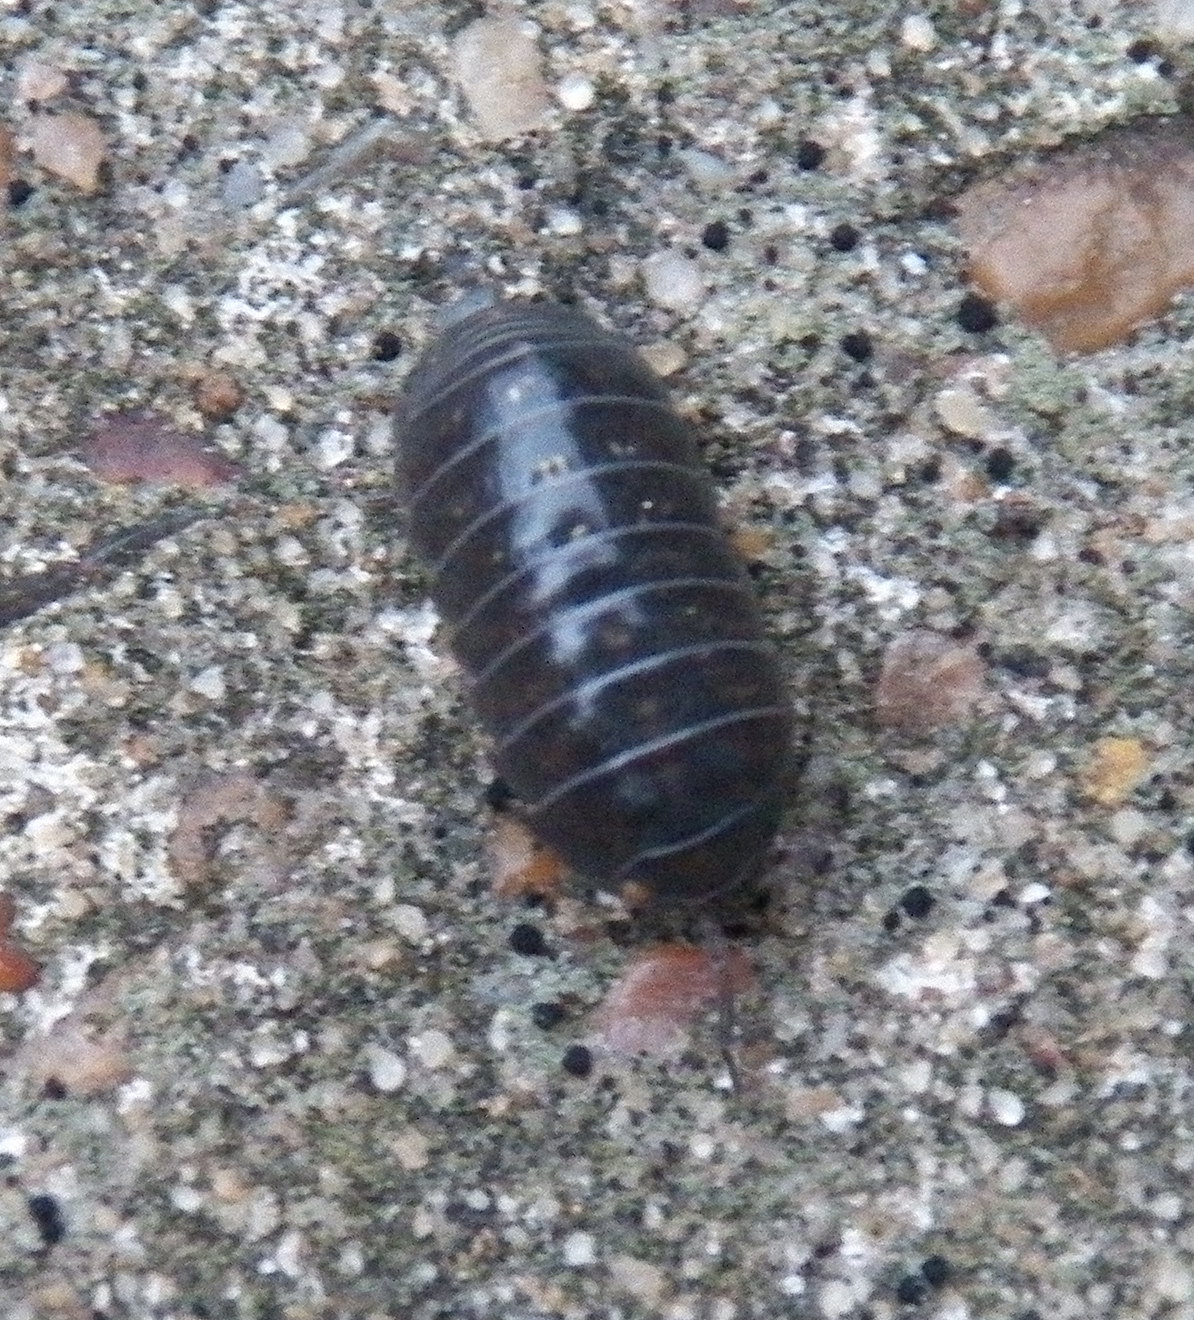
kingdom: Animalia
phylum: Arthropoda
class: Malacostraca
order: Isopoda
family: Armadillidiidae
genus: Armadillidium
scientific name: Armadillidium vulgare
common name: Common pill woodlouse
